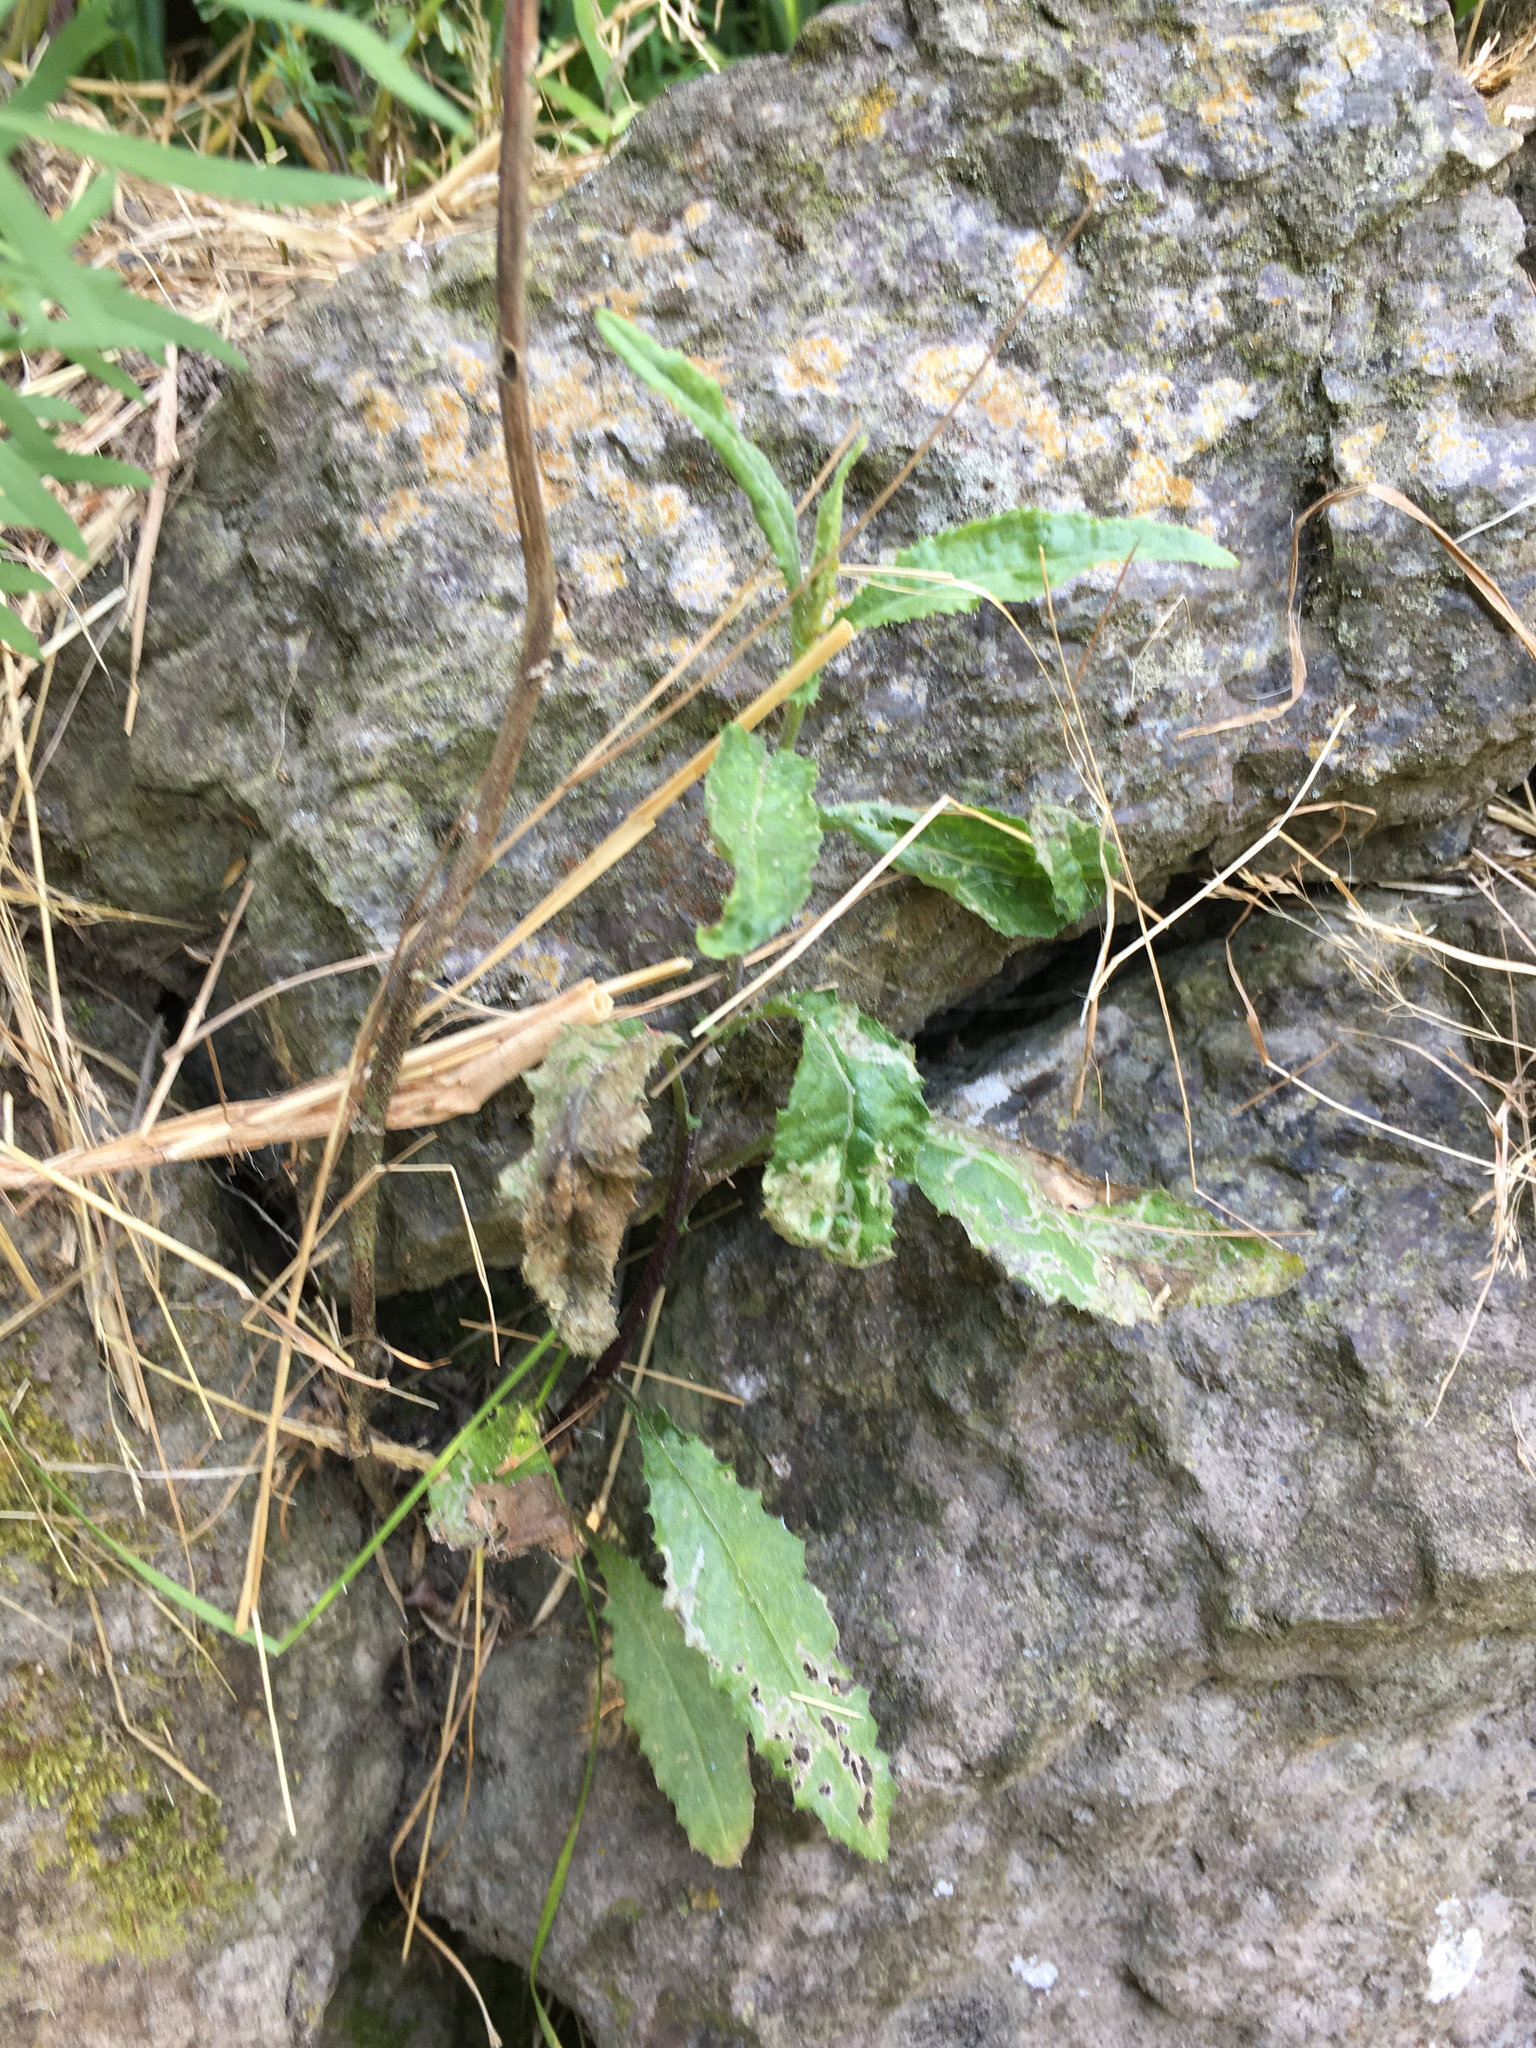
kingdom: Plantae
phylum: Tracheophyta
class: Magnoliopsida
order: Asterales
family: Asteraceae
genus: Senecio
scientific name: Senecio minimus
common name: Toothed fireweed
